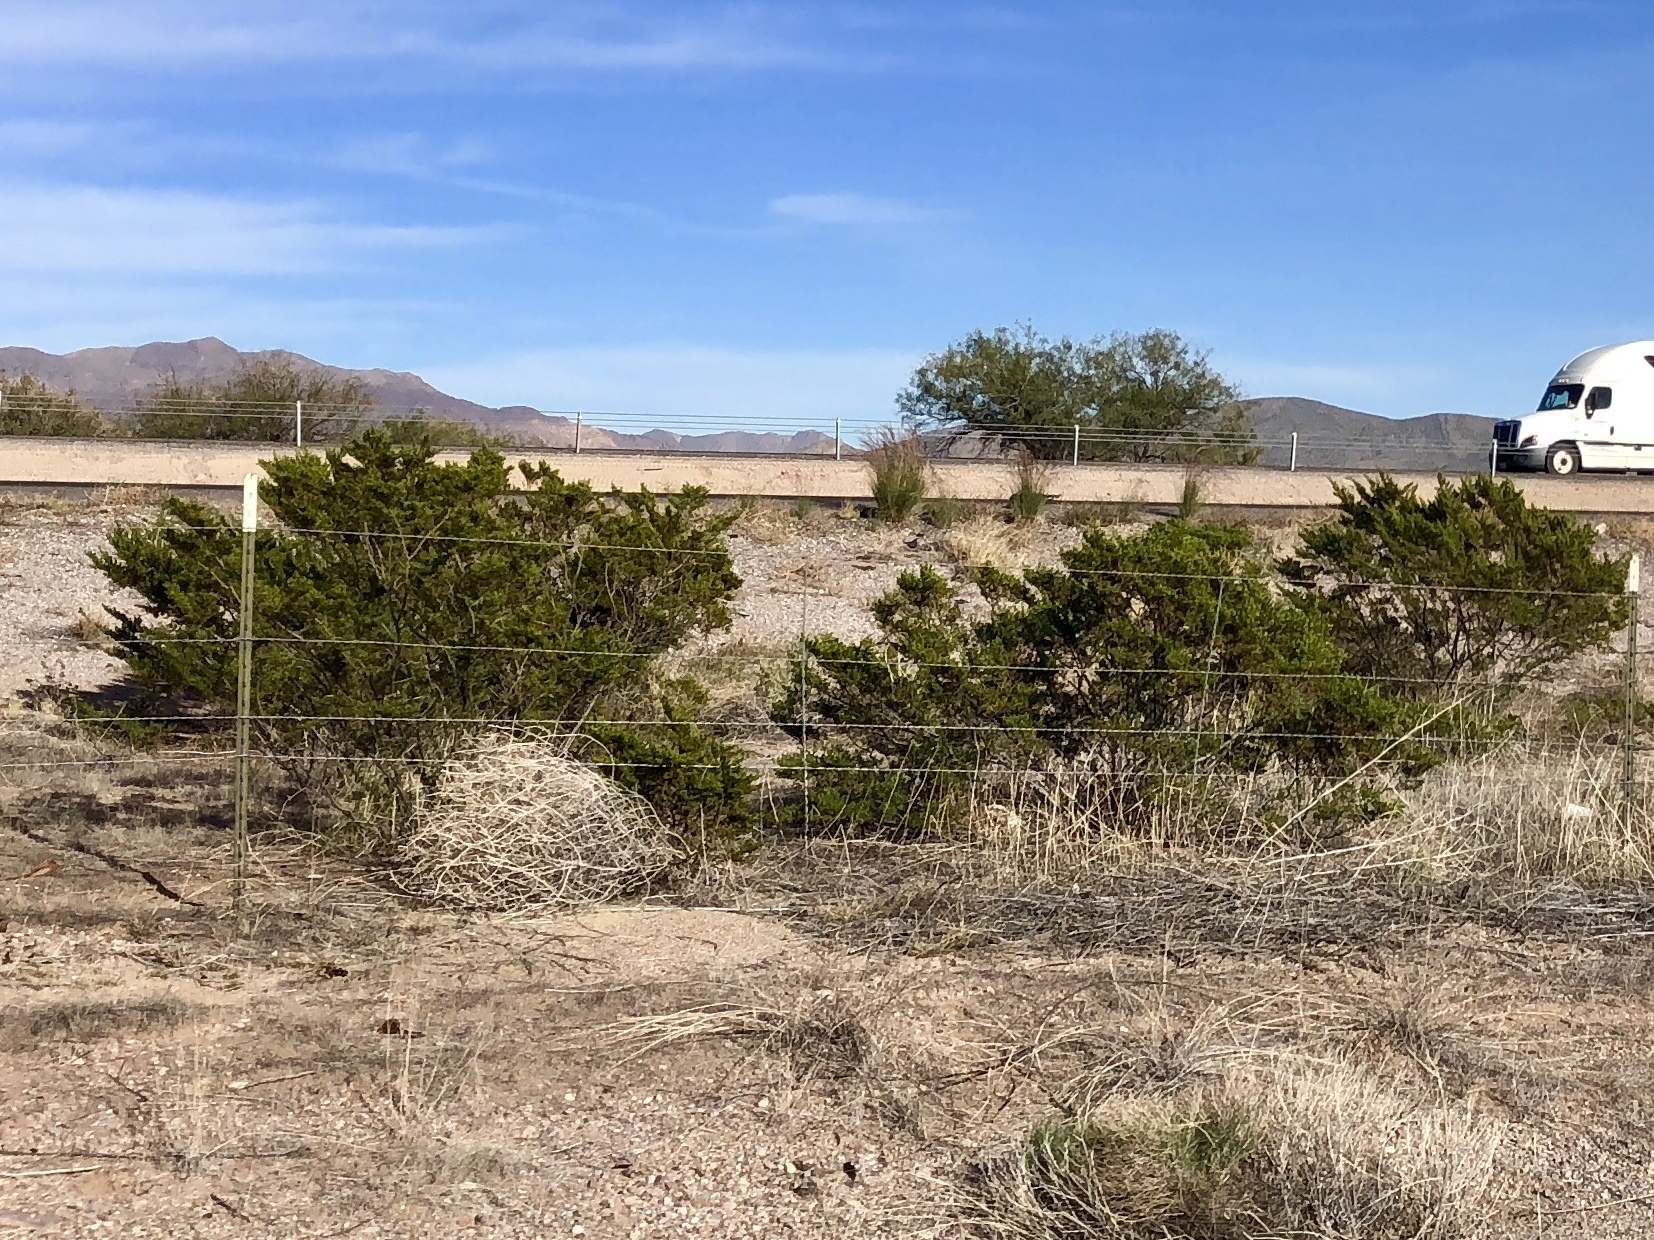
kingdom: Plantae
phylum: Tracheophyta
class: Magnoliopsida
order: Zygophyllales
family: Zygophyllaceae
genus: Larrea
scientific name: Larrea tridentata
